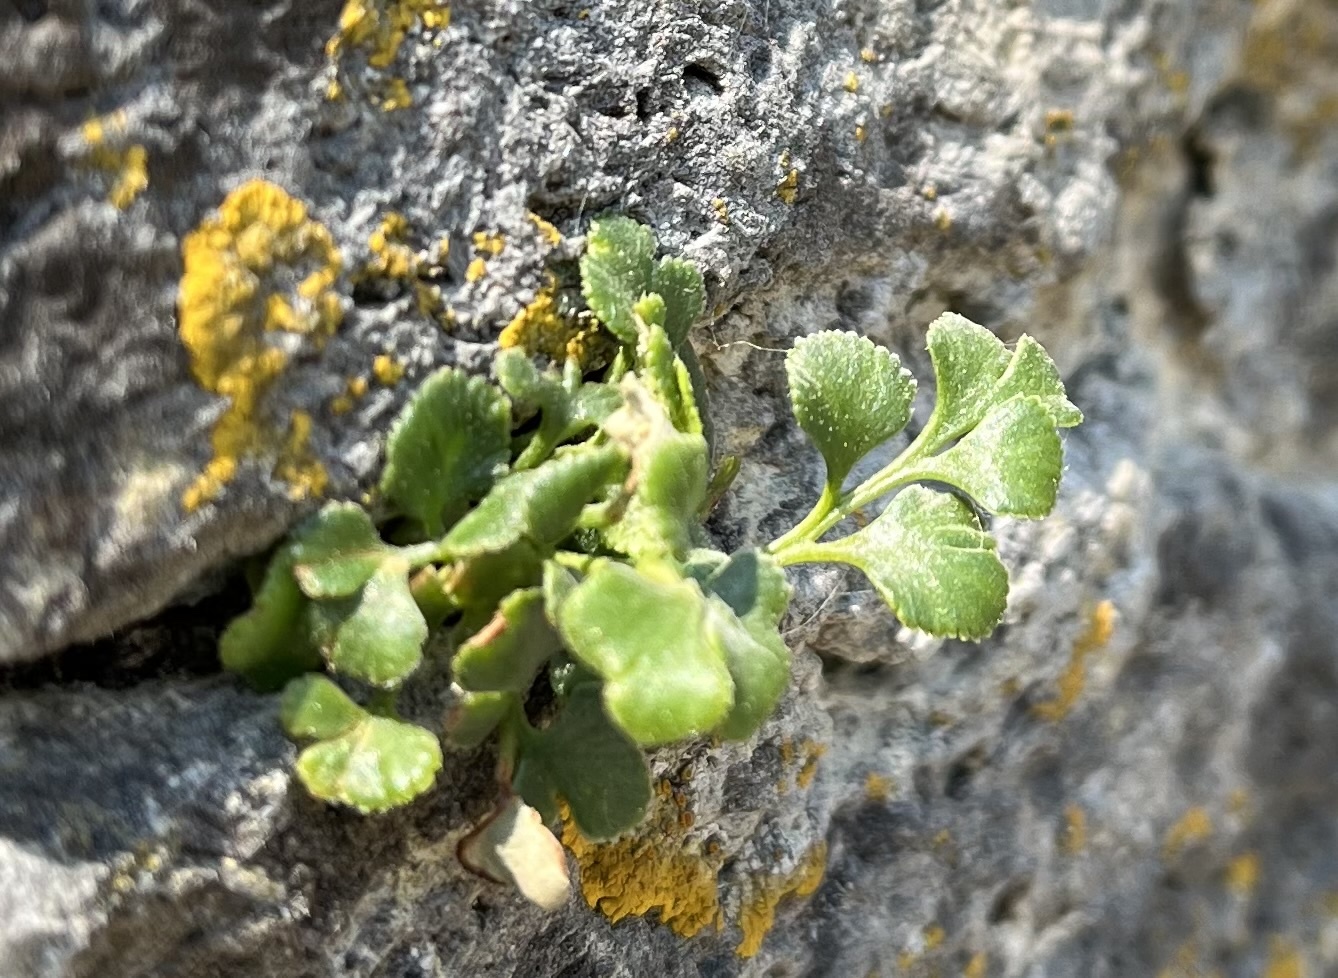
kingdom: Plantae
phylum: Tracheophyta
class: Polypodiopsida
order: Polypodiales
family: Aspleniaceae
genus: Asplenium
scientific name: Asplenium ruta-muraria
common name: Wall-rue
